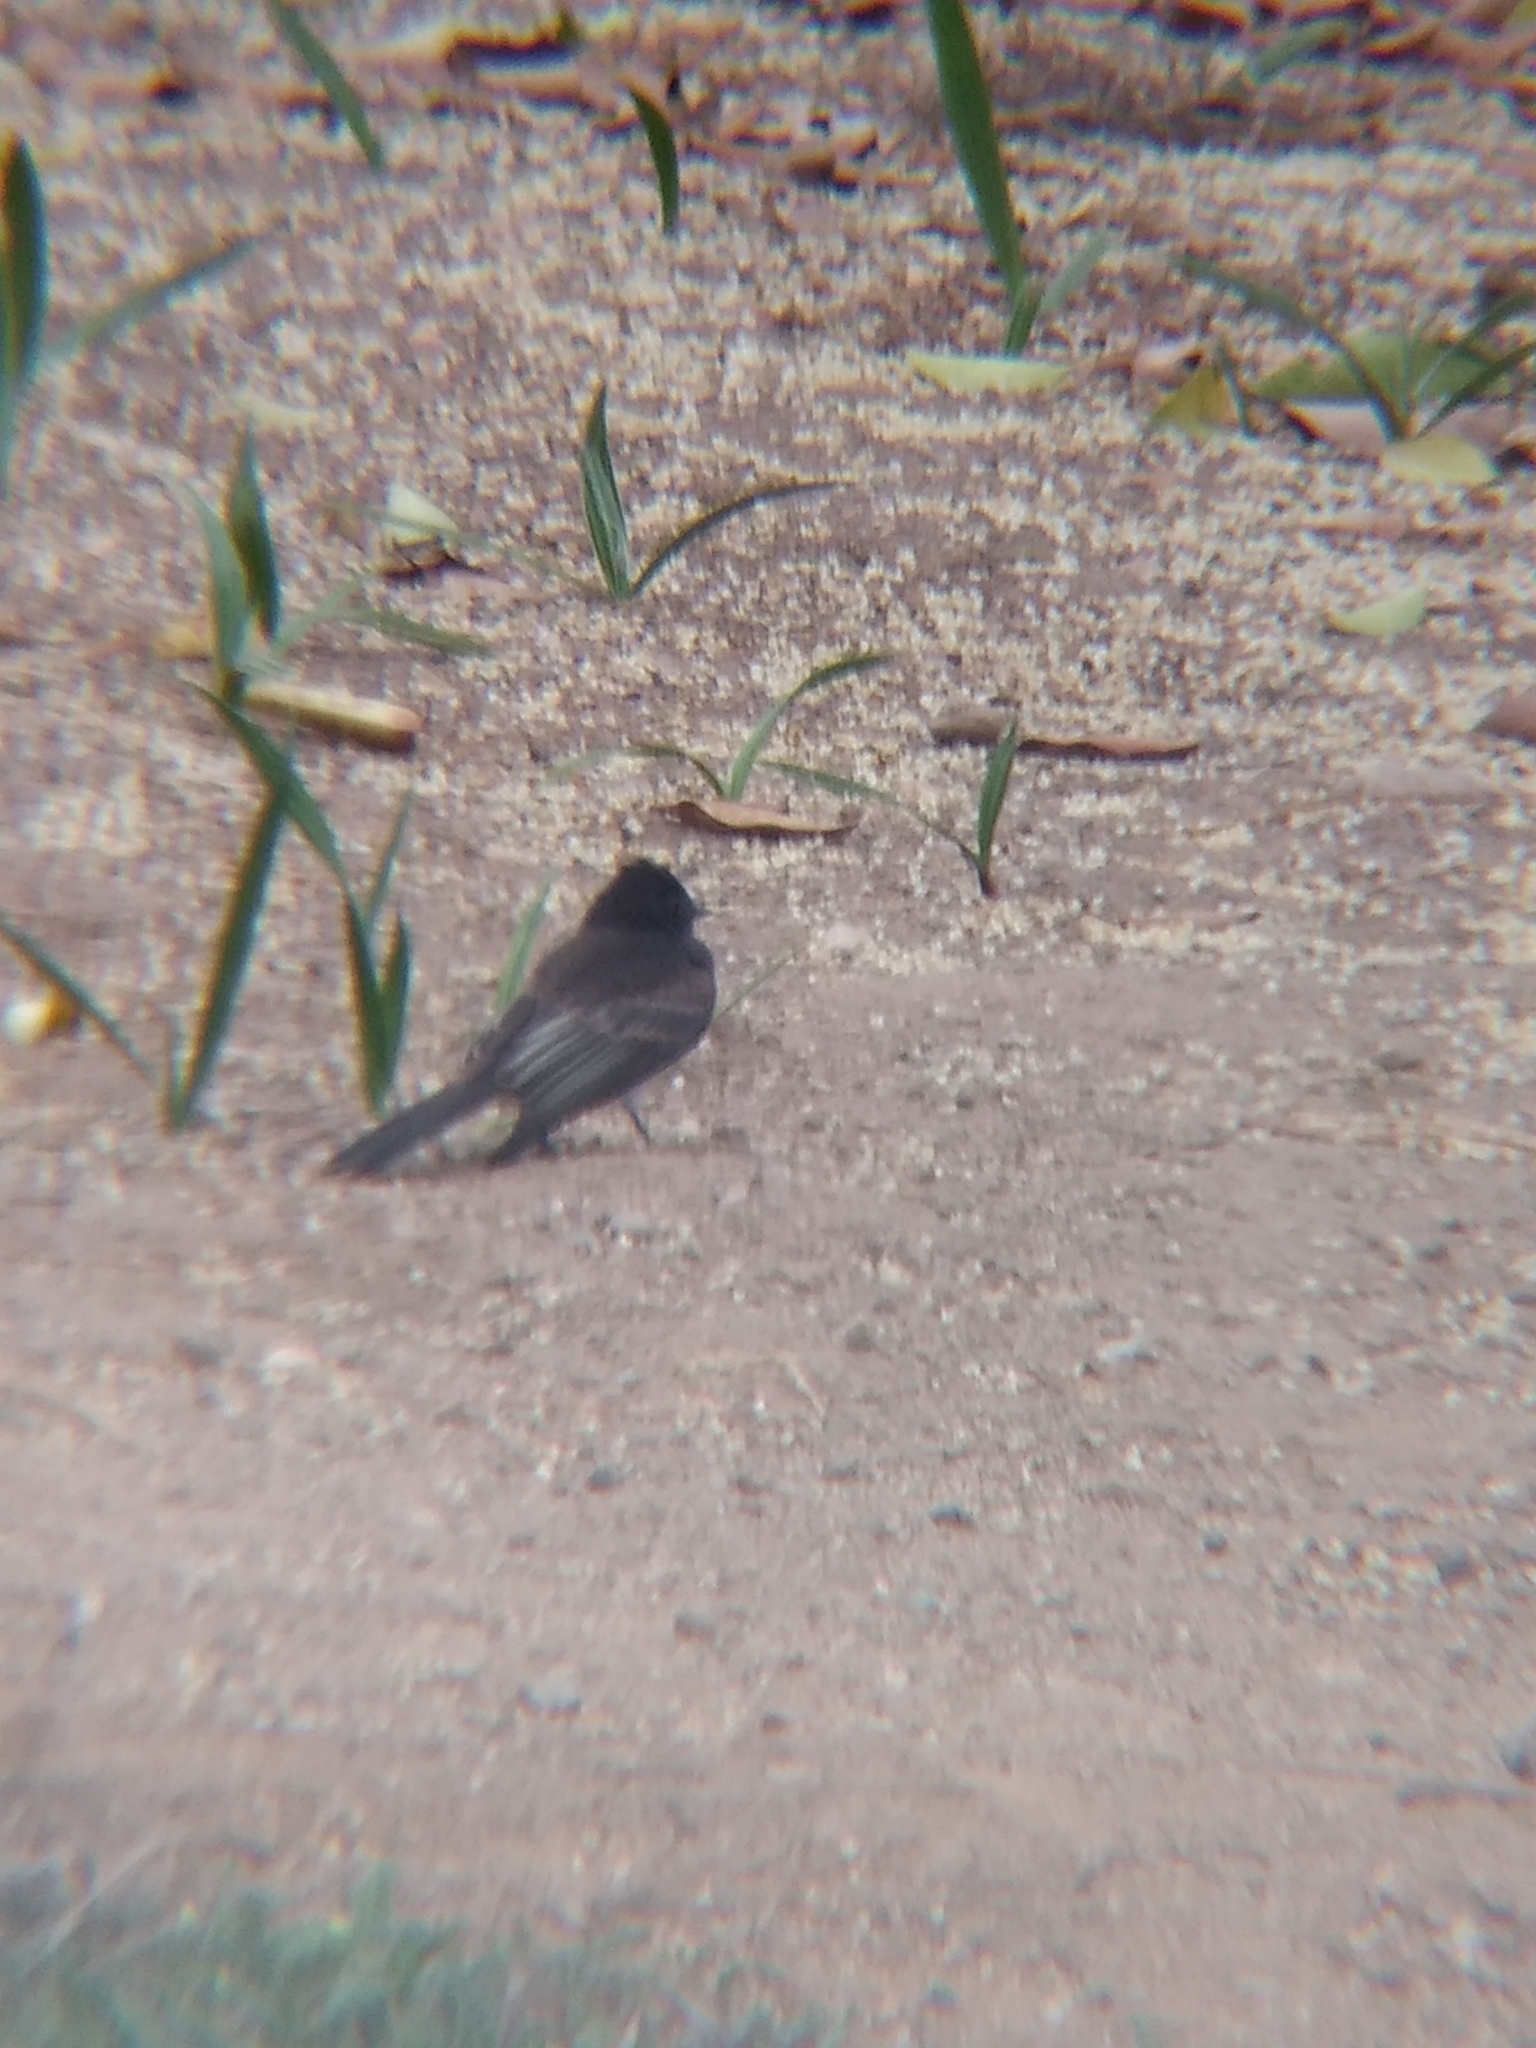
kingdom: Animalia
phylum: Chordata
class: Aves
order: Passeriformes
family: Tyrannidae
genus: Sayornis
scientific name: Sayornis nigricans
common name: Black phoebe
